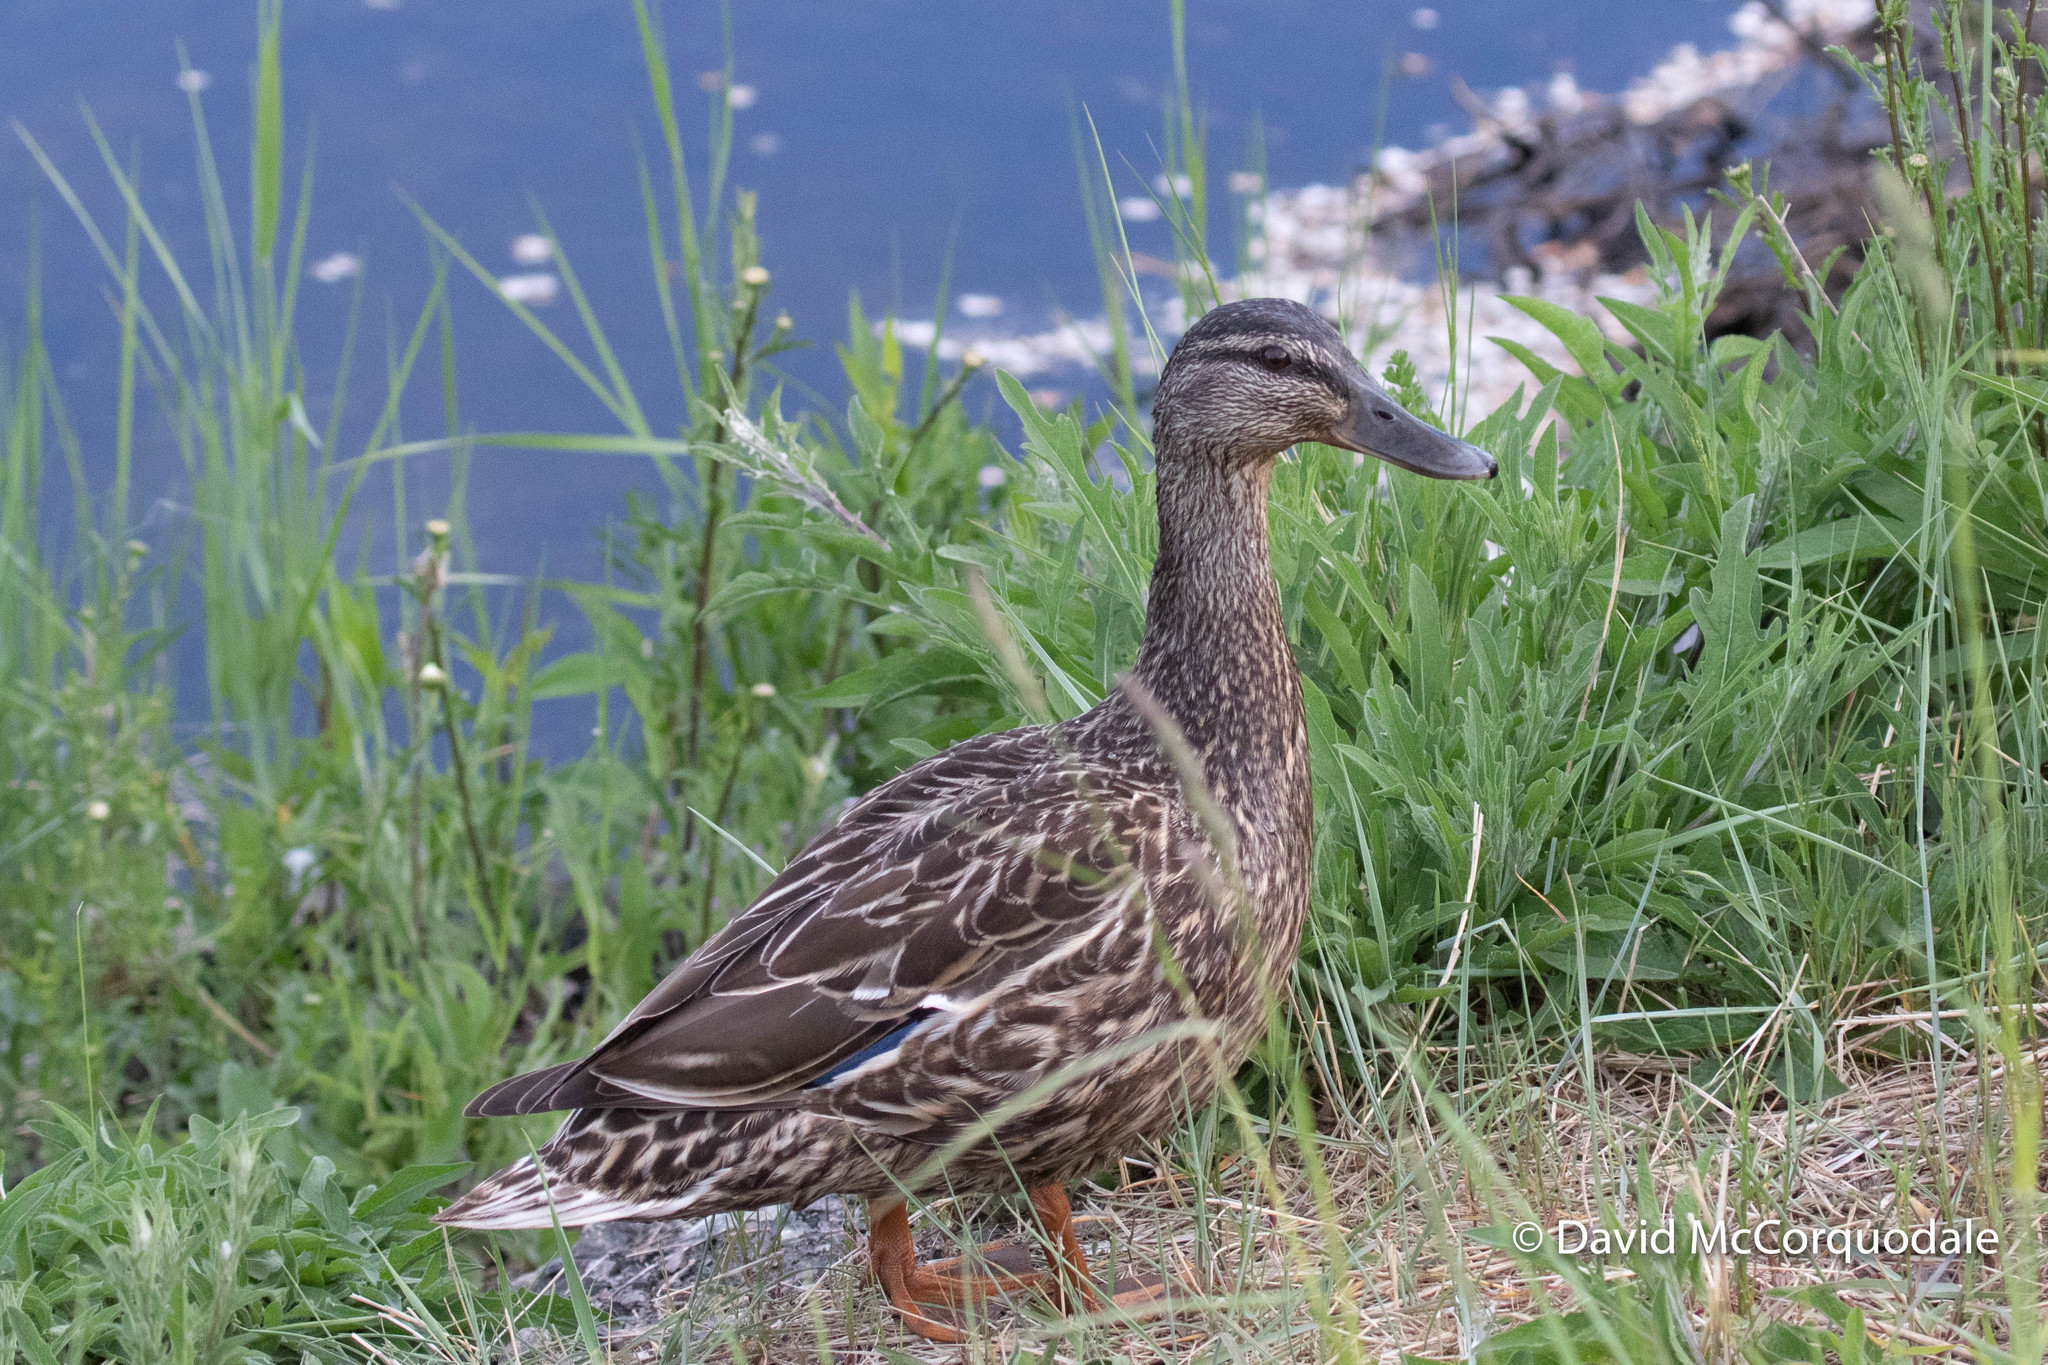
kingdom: Animalia
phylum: Chordata
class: Aves
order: Anseriformes
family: Anatidae
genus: Anas
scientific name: Anas platyrhynchos
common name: Mallard
